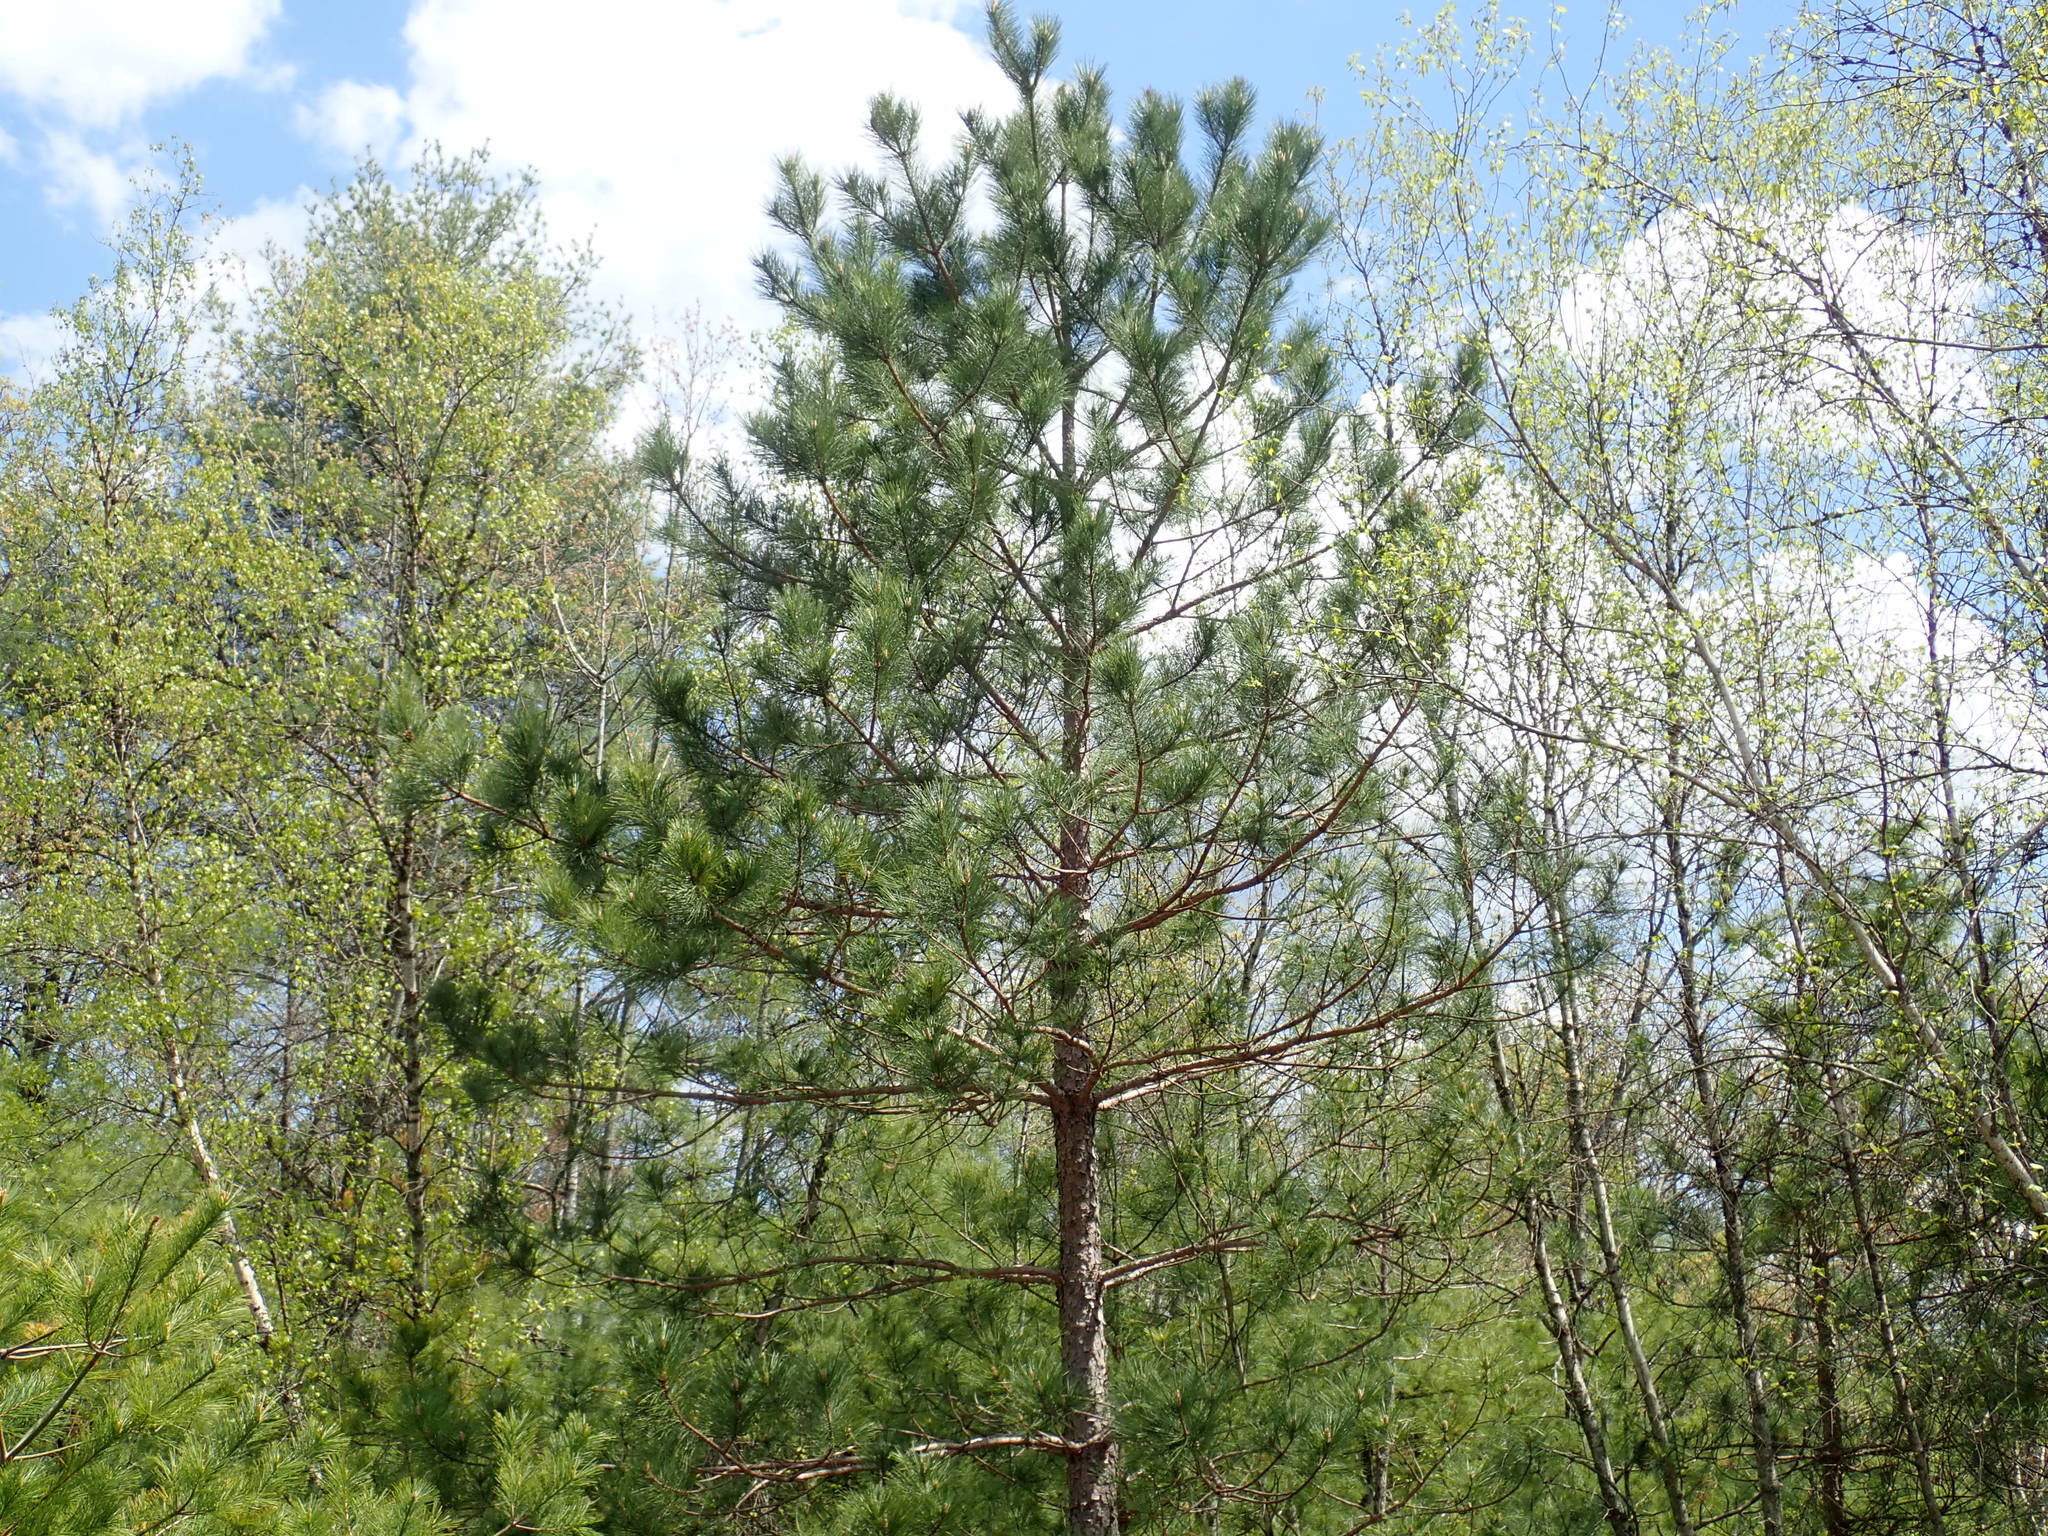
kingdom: Plantae
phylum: Tracheophyta
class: Pinopsida
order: Pinales
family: Pinaceae
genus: Pinus
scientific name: Pinus resinosa
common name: Norway pine
